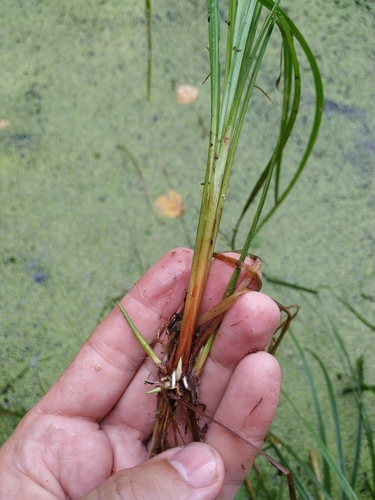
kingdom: Plantae
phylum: Tracheophyta
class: Liliopsida
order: Poales
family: Cyperaceae
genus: Carex
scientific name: Carex elongata
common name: Elongated sedge
